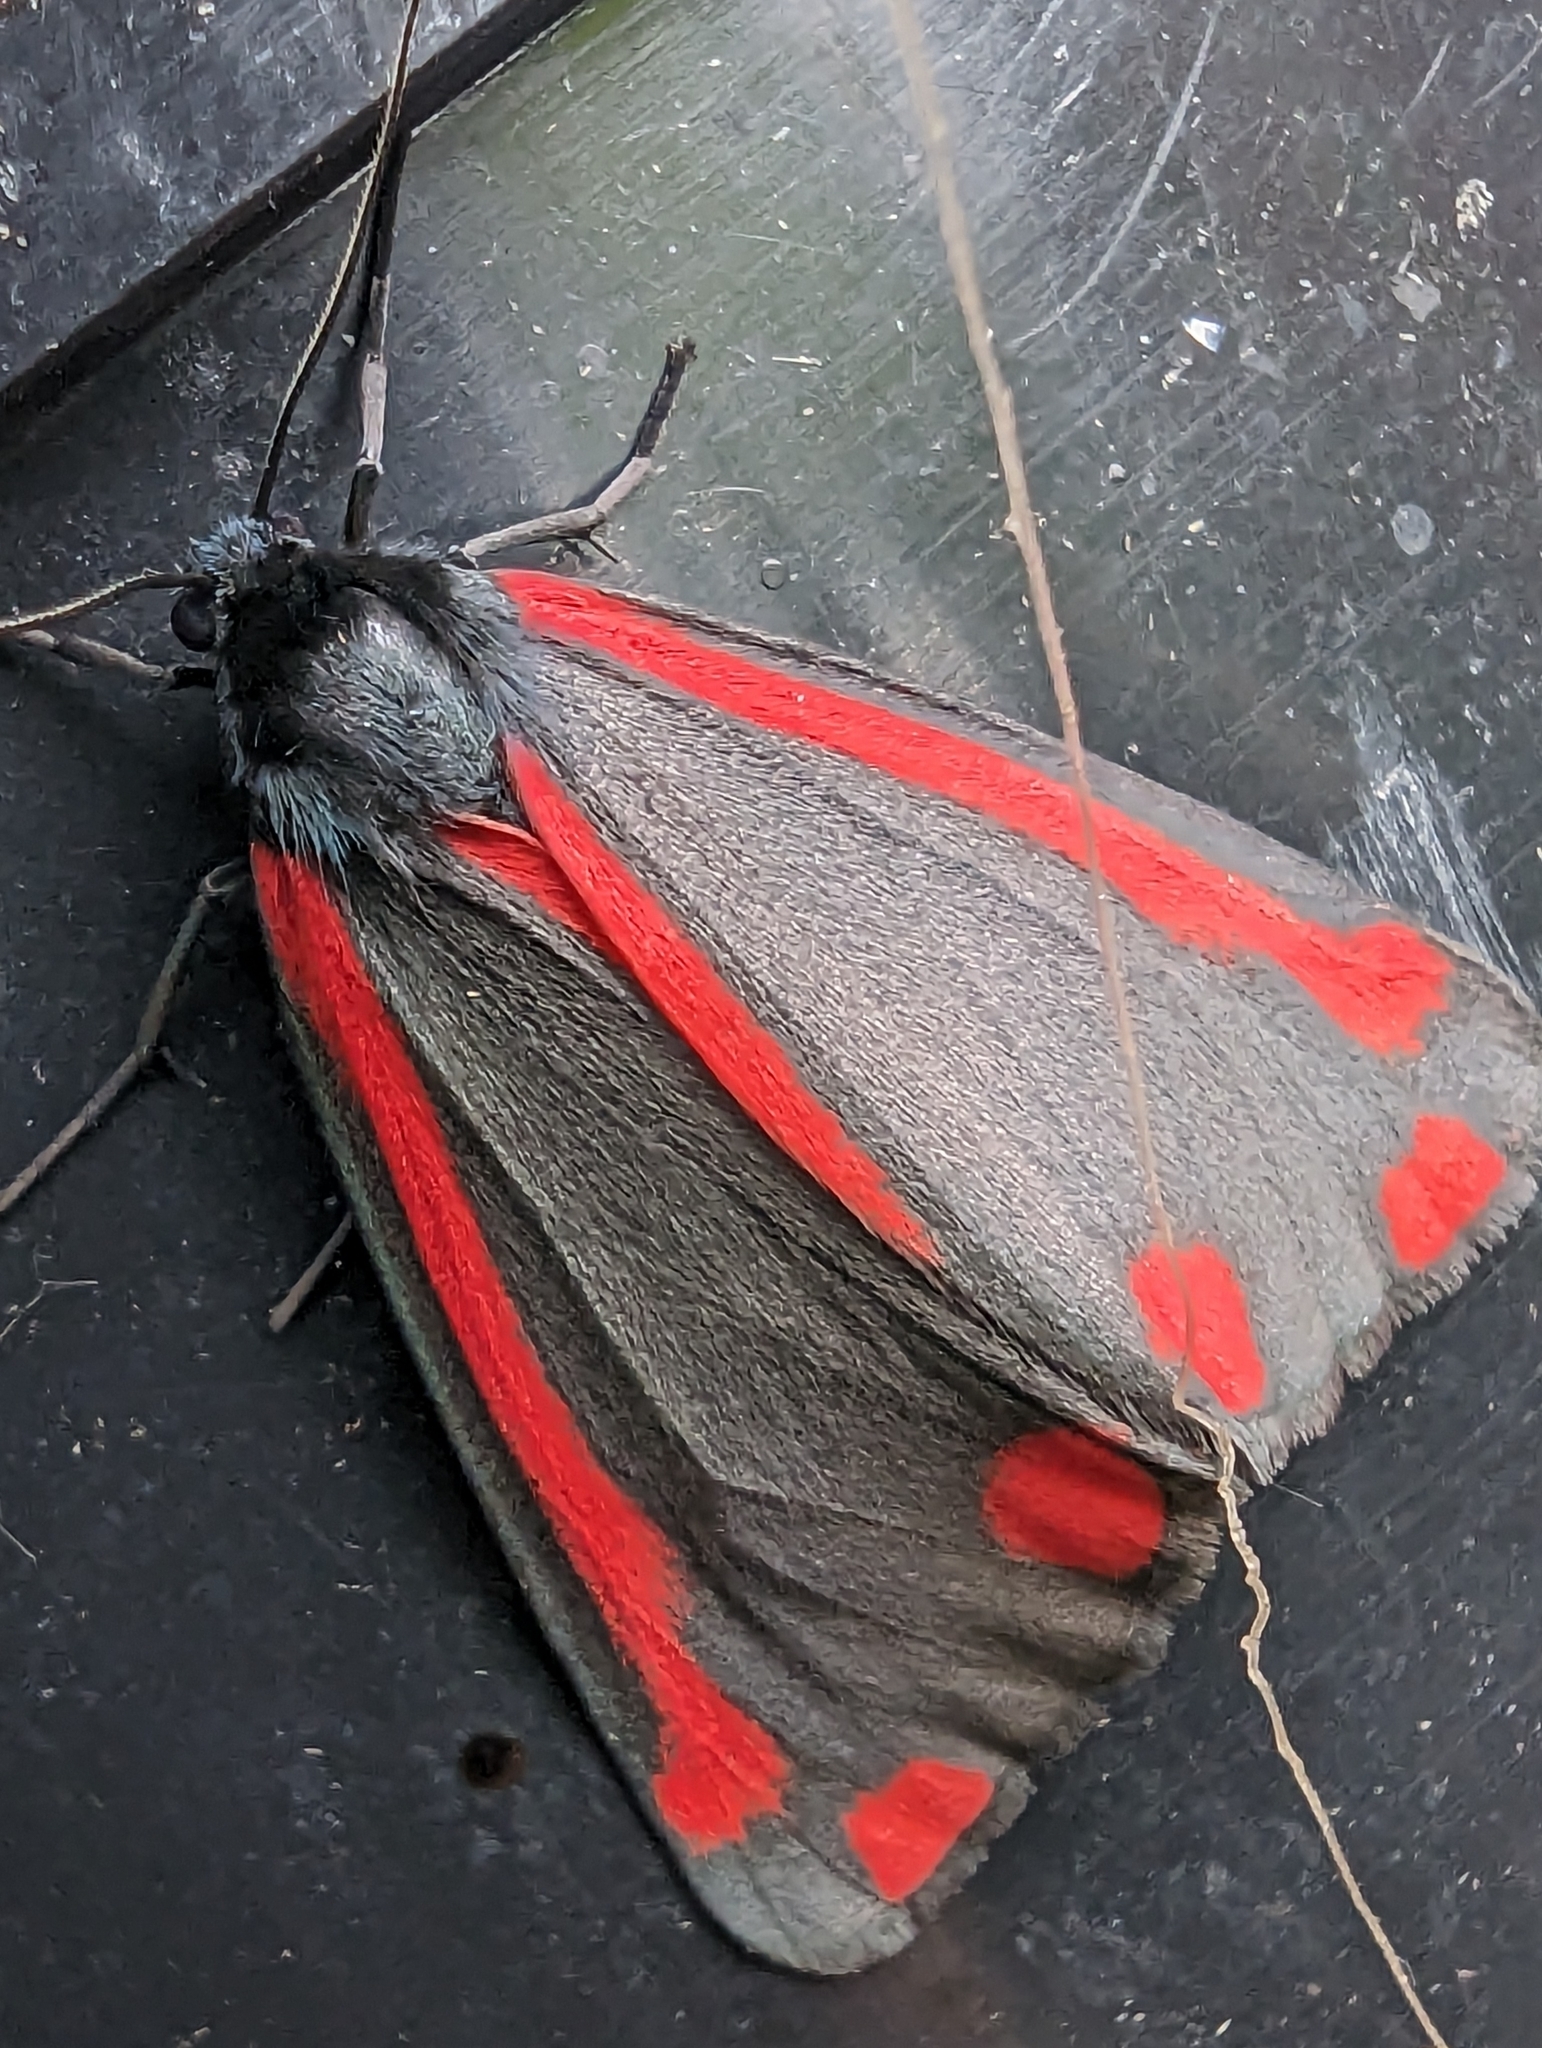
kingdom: Animalia
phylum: Arthropoda
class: Insecta
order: Lepidoptera
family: Erebidae
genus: Tyria
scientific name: Tyria jacobaeae
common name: Cinnabar
